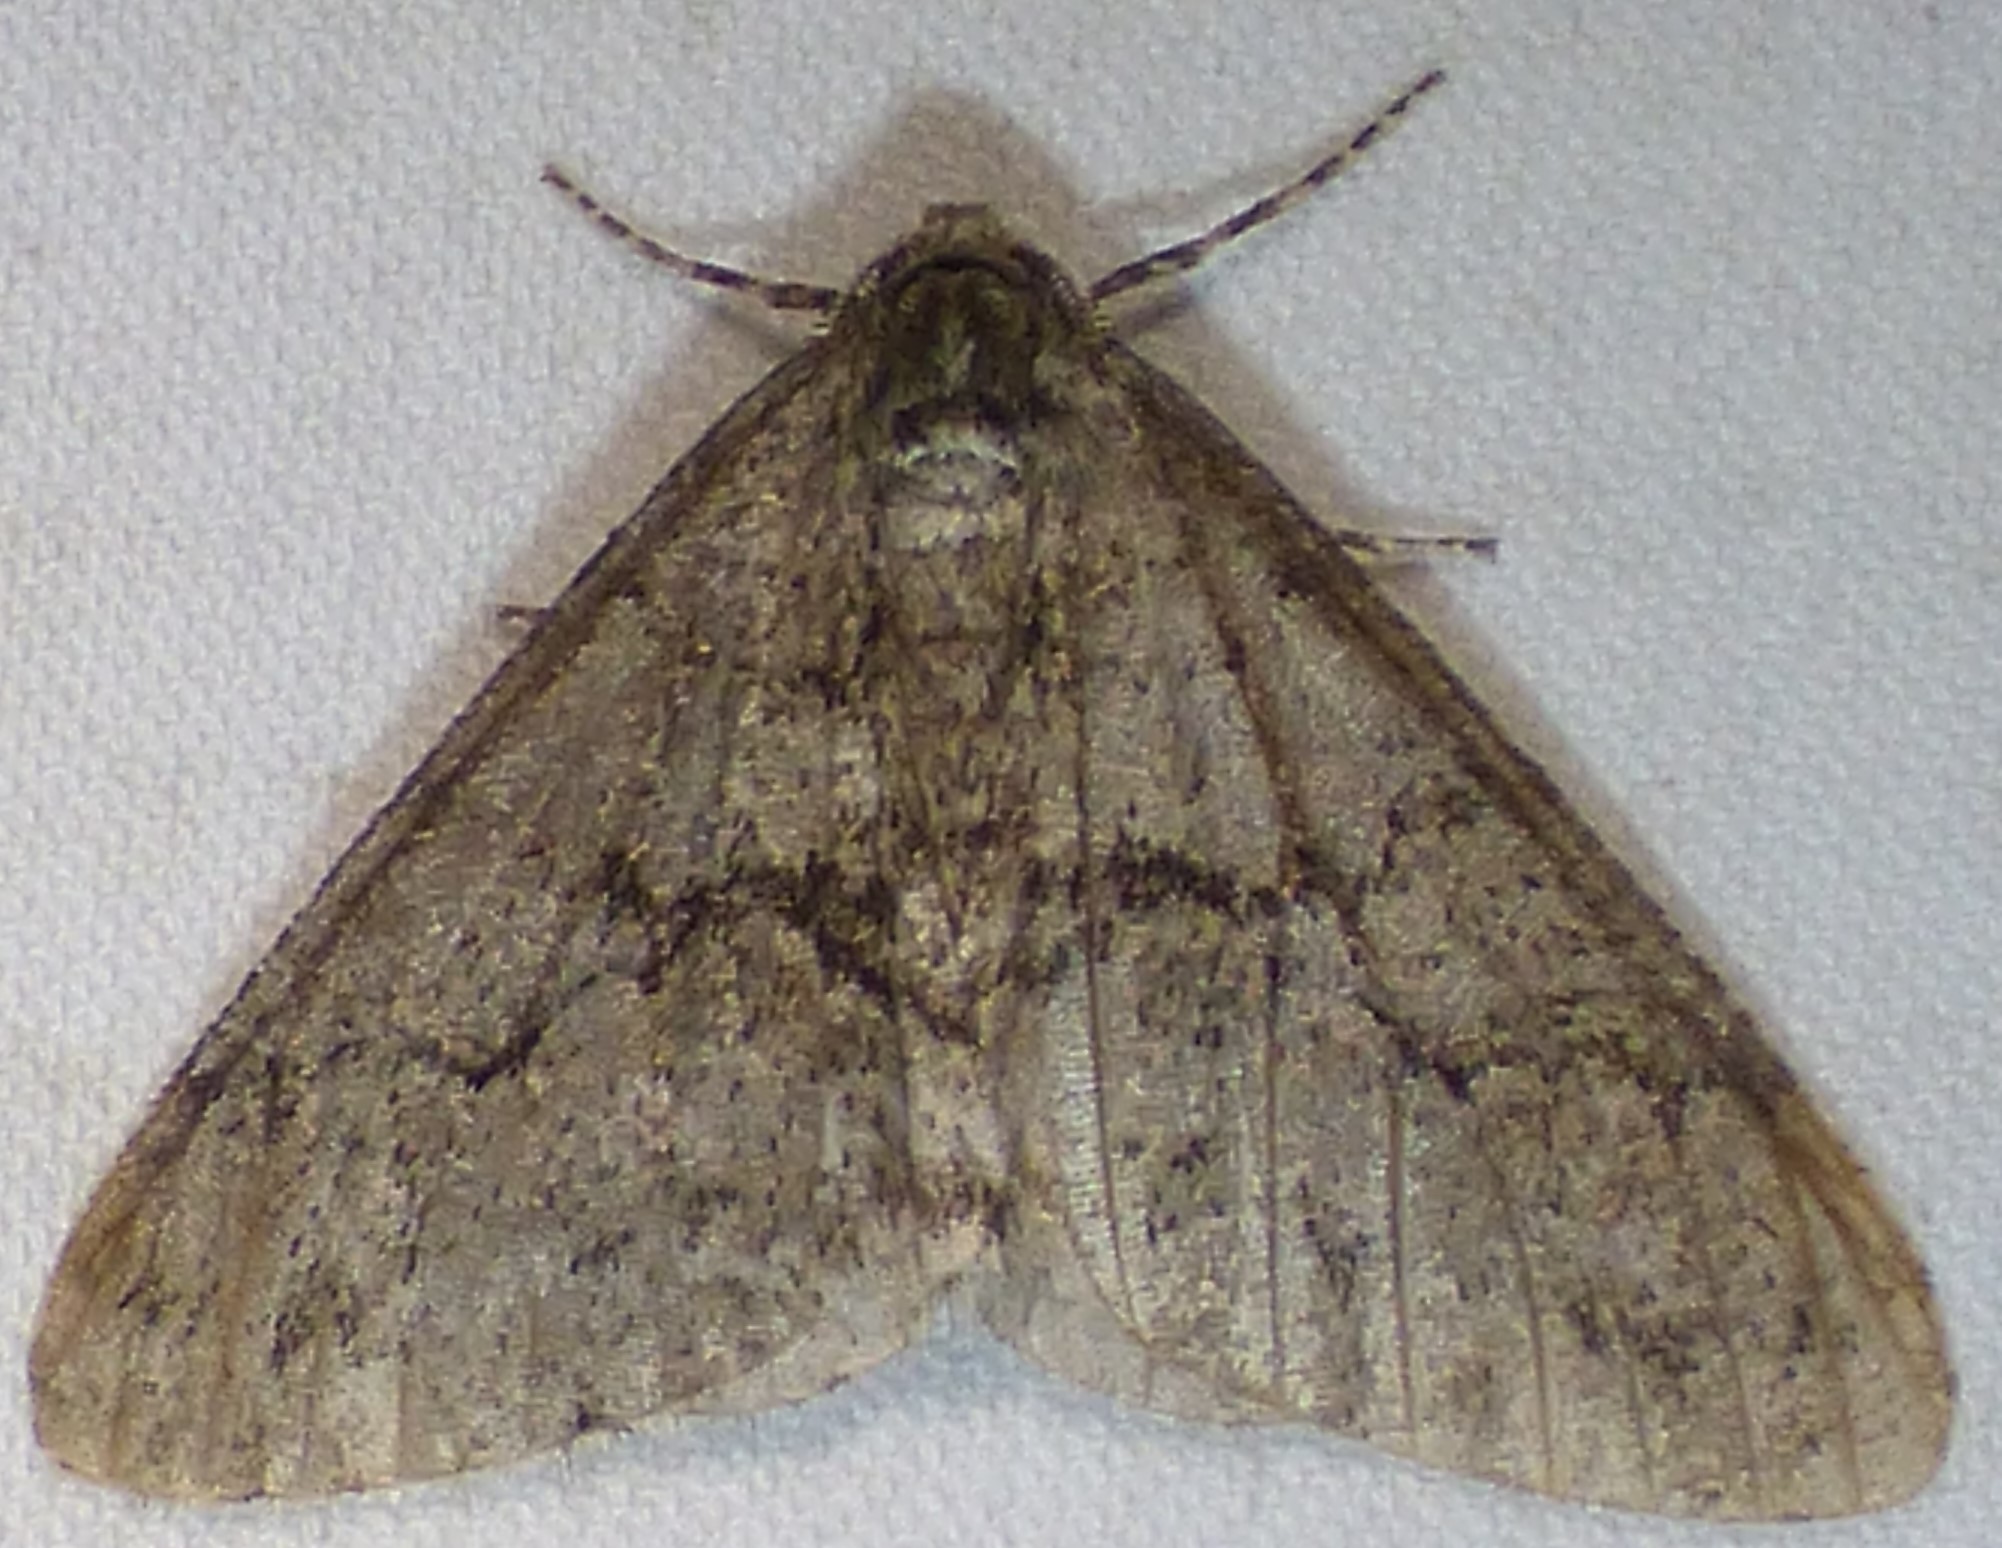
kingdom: Animalia
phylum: Arthropoda
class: Insecta
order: Lepidoptera
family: Geometridae
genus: Phigalia
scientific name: Phigalia denticulata
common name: Toothed phigalia
